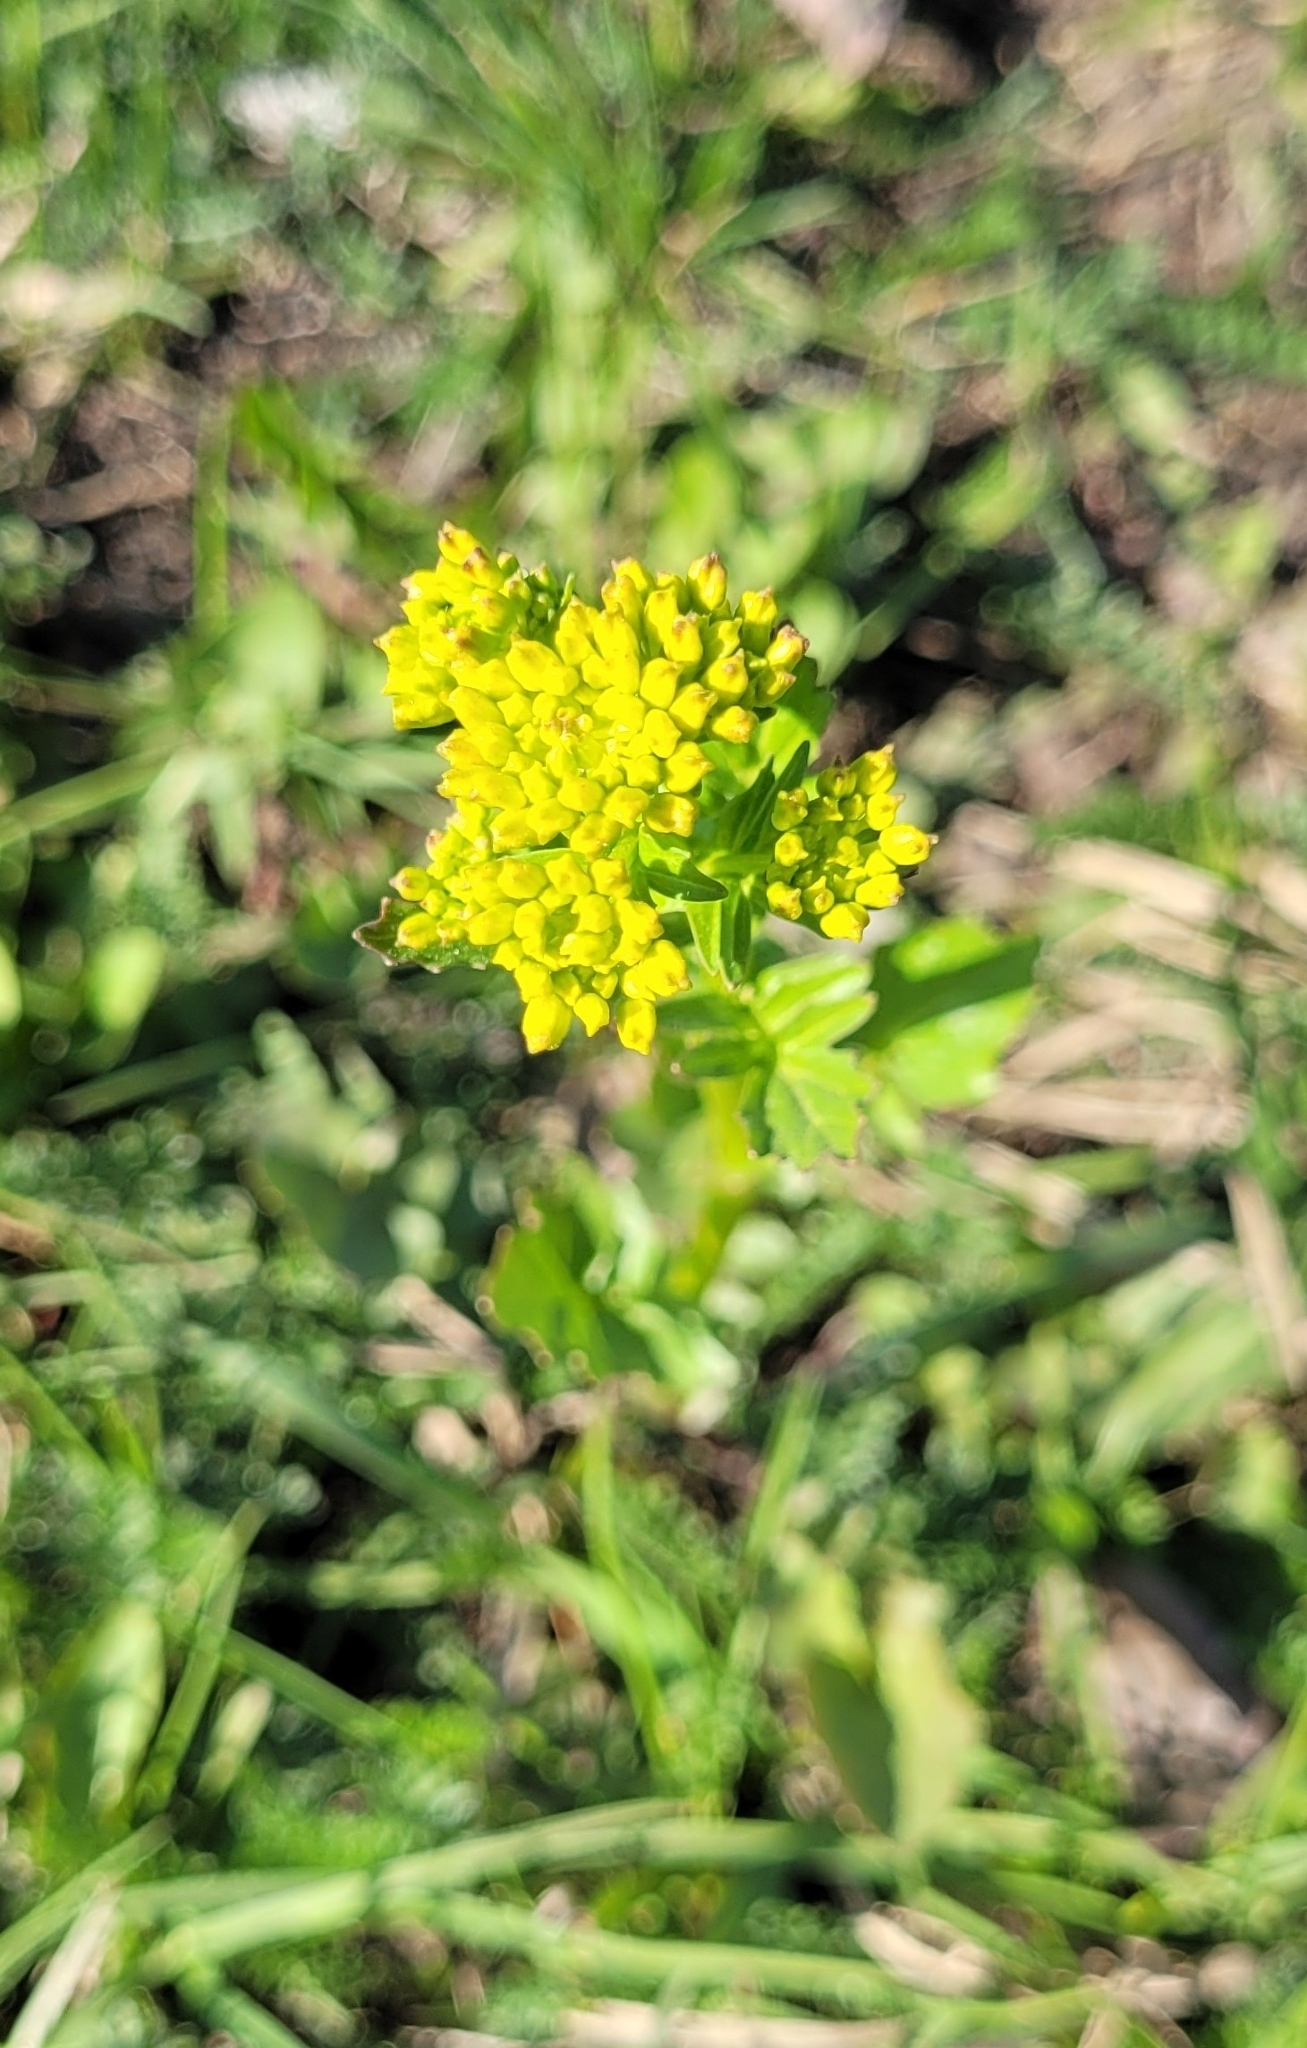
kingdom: Plantae
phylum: Tracheophyta
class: Magnoliopsida
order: Brassicales
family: Brassicaceae
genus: Barbarea
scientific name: Barbarea vulgaris
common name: Cressy-greens
